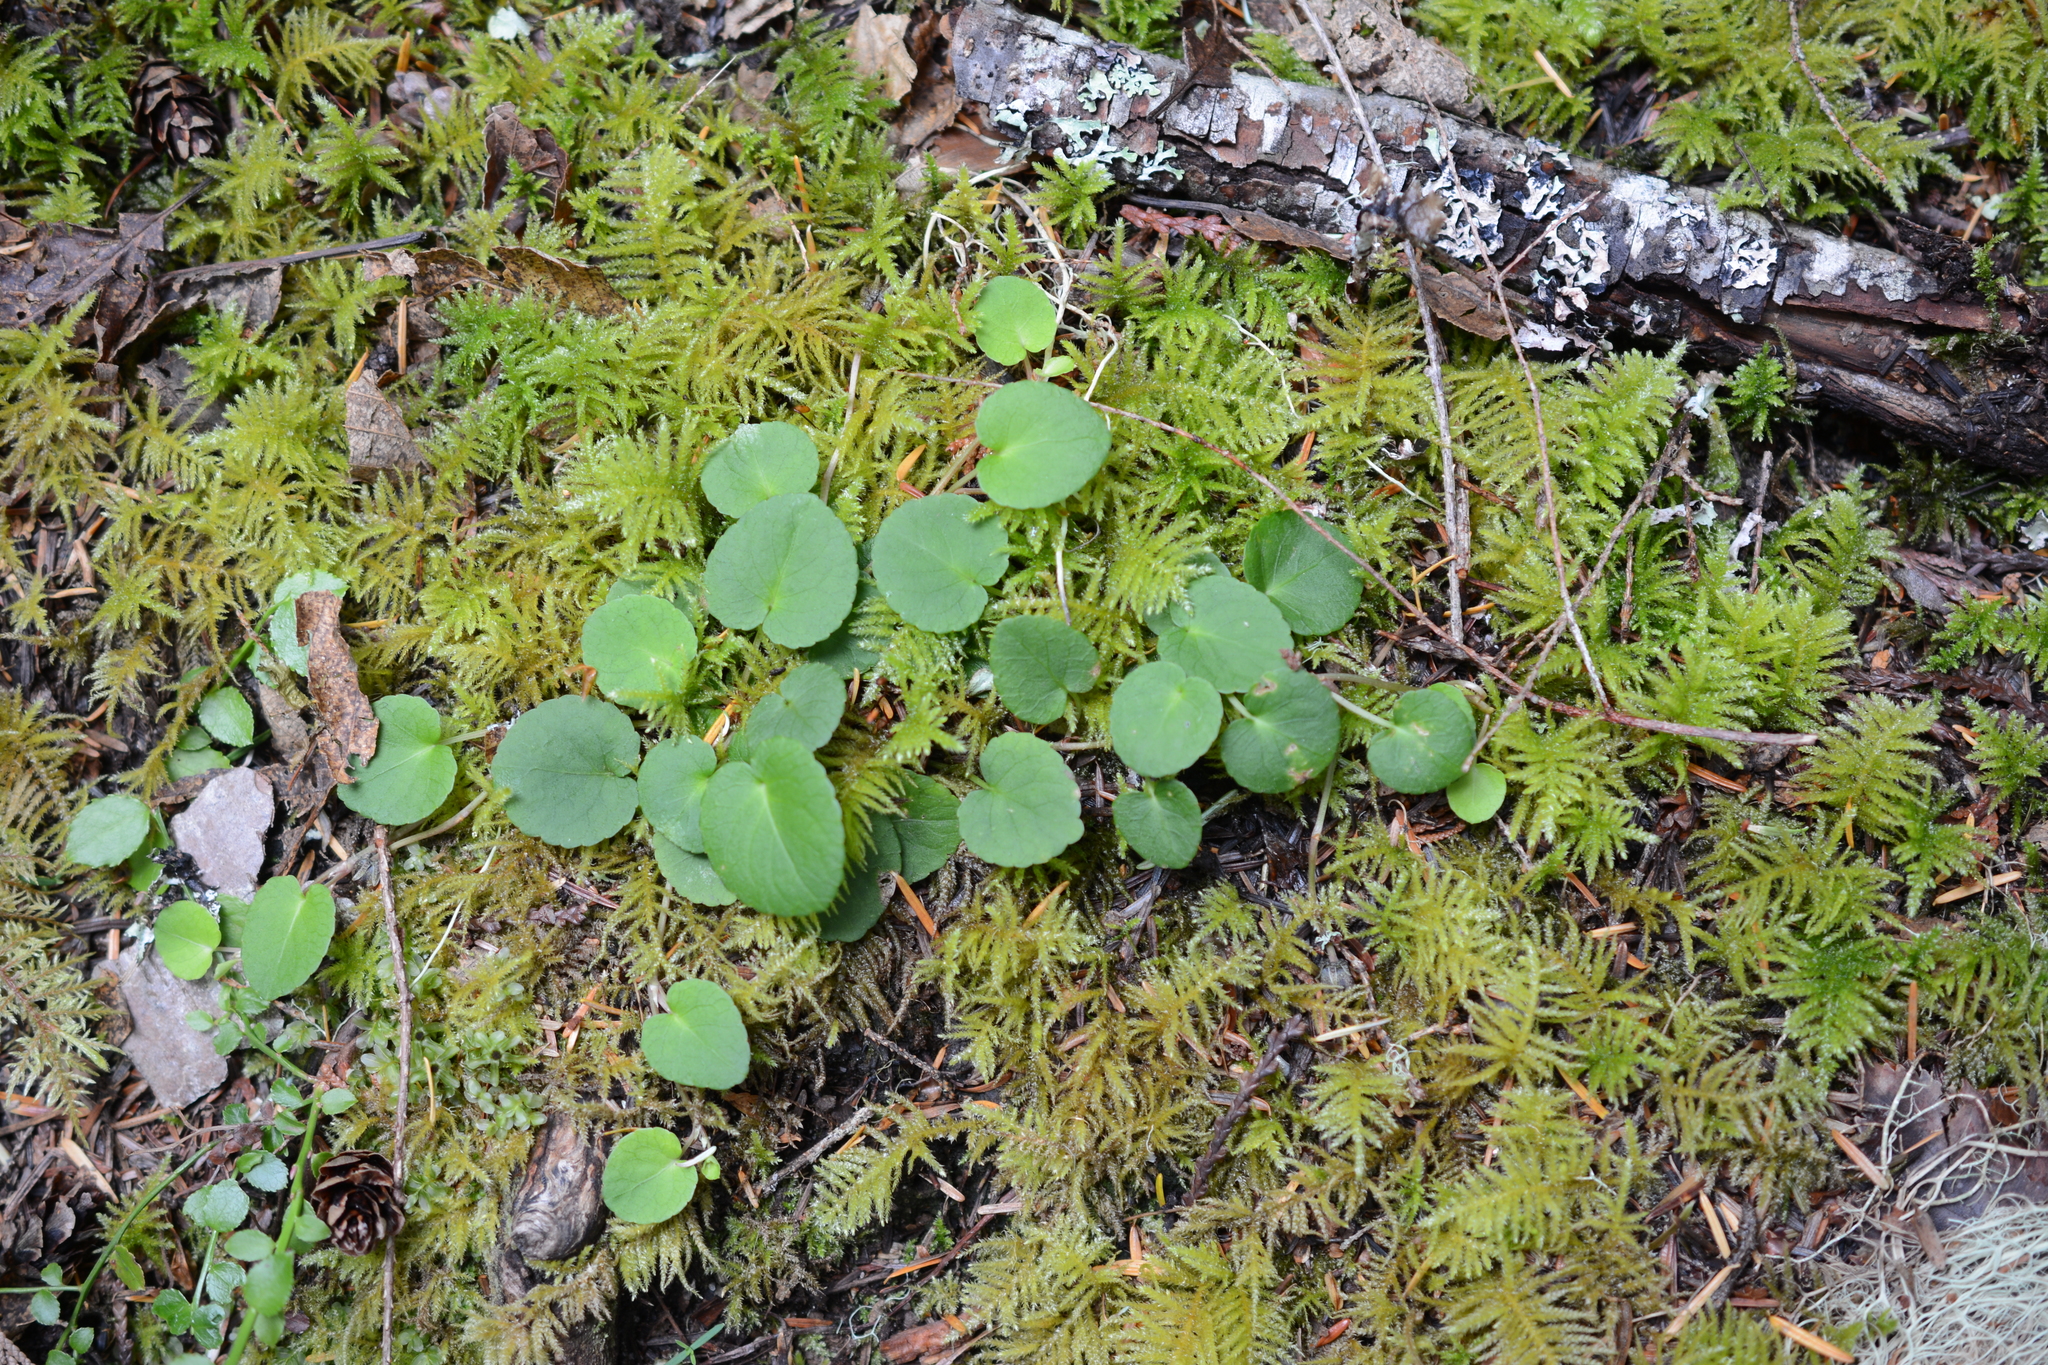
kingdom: Plantae
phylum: Tracheophyta
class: Magnoliopsida
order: Malpighiales
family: Violaceae
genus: Viola
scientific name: Viola sempervirens
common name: Evergreen violet
